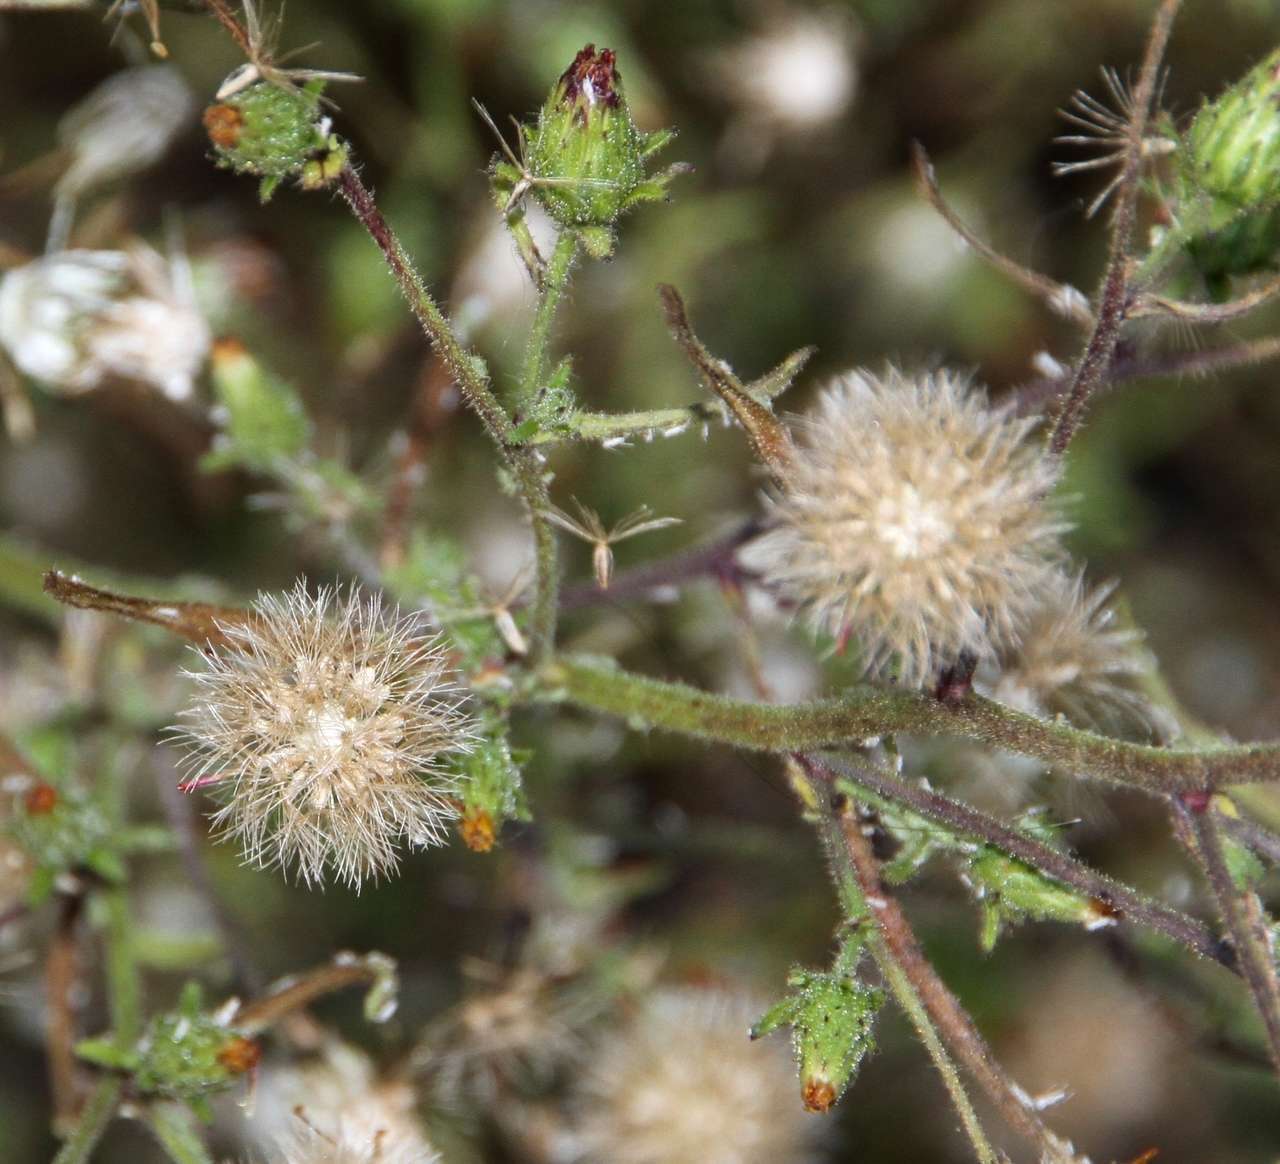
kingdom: Plantae
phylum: Tracheophyta
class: Magnoliopsida
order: Asterales
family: Asteraceae
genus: Dittrichia
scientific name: Dittrichia graveolens
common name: Stinking fleabane
